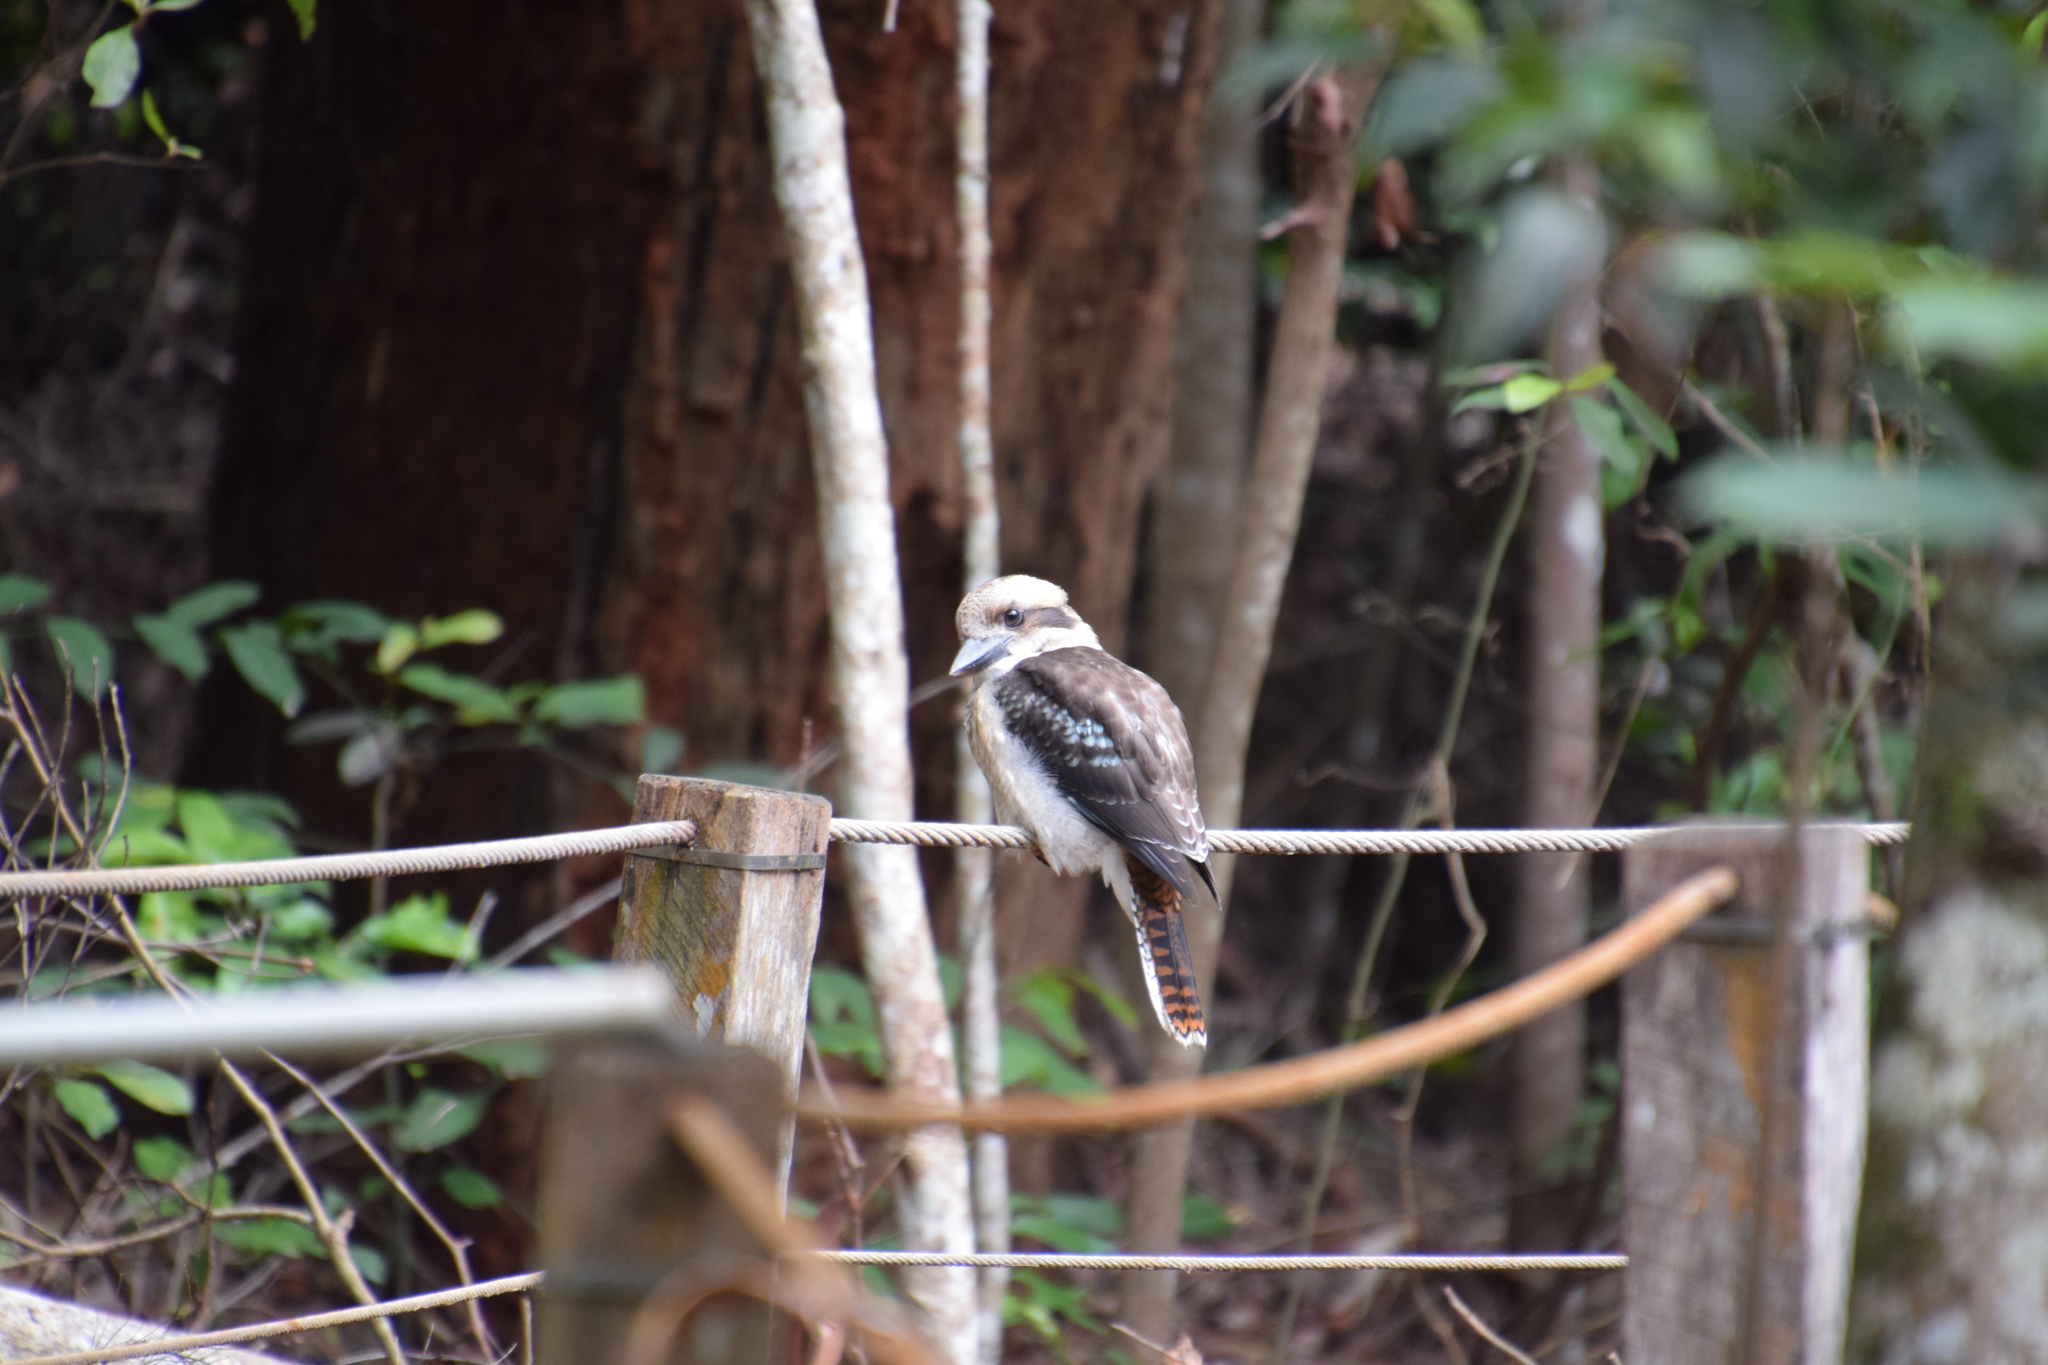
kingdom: Animalia
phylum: Chordata
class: Aves
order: Coraciiformes
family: Alcedinidae
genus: Dacelo
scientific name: Dacelo novaeguineae
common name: Laughing kookaburra
